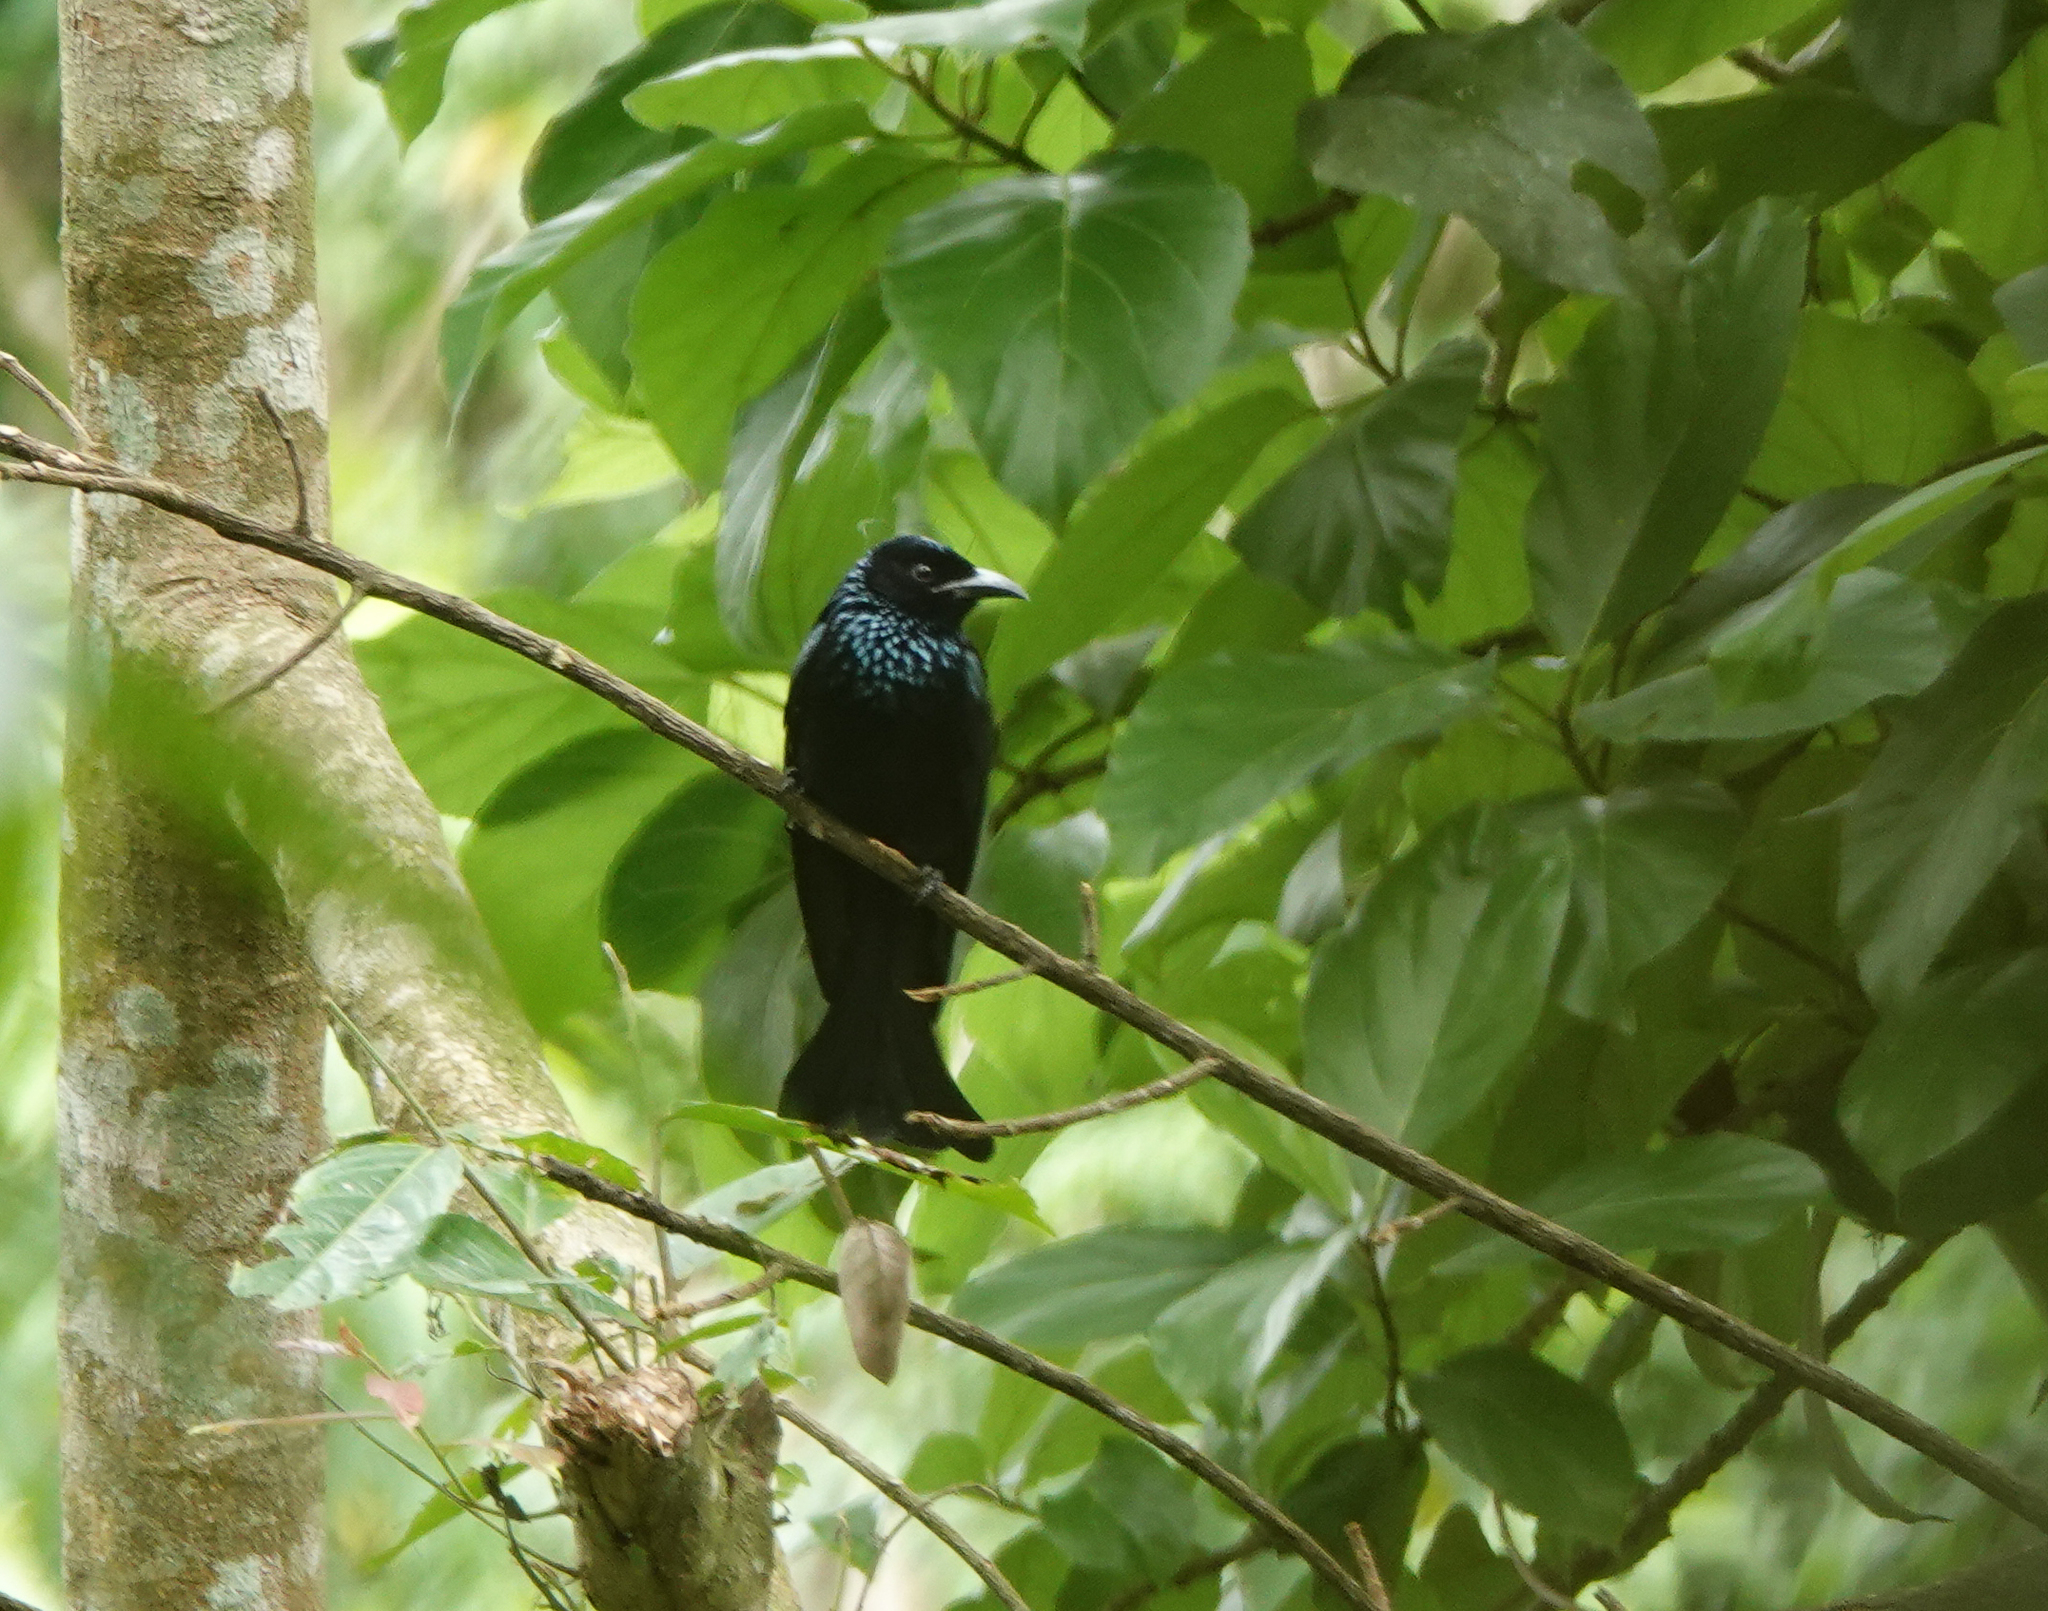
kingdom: Animalia
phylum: Chordata
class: Aves
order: Passeriformes
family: Dicruridae
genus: Dicrurus
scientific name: Dicrurus aeneus
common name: Bronzed drongo
